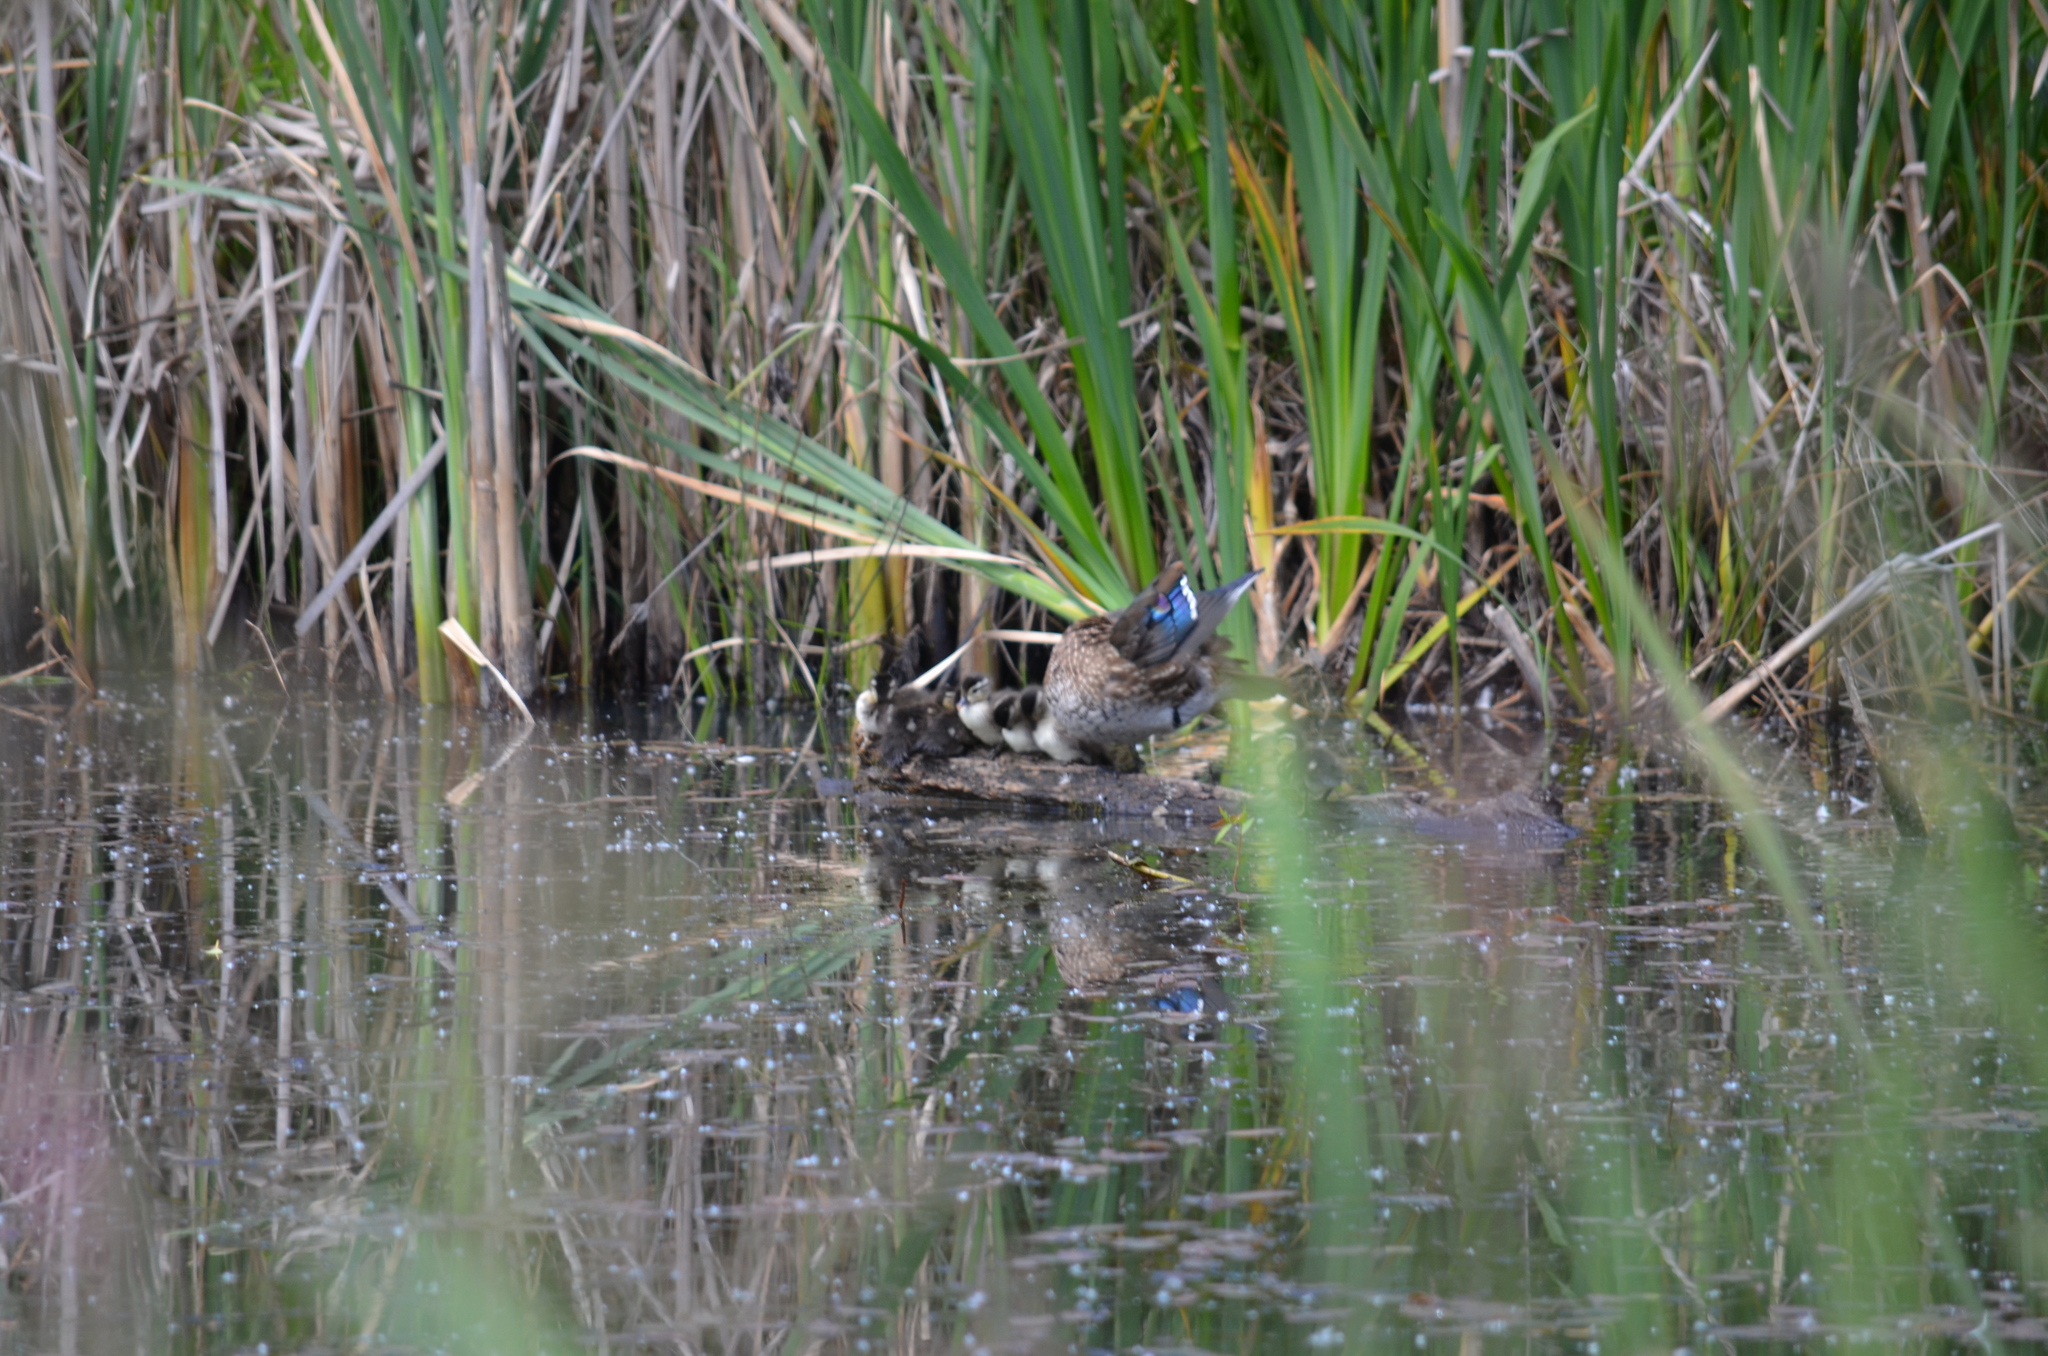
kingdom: Animalia
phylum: Chordata
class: Aves
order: Anseriformes
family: Anatidae
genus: Aix
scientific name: Aix sponsa
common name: Wood duck
